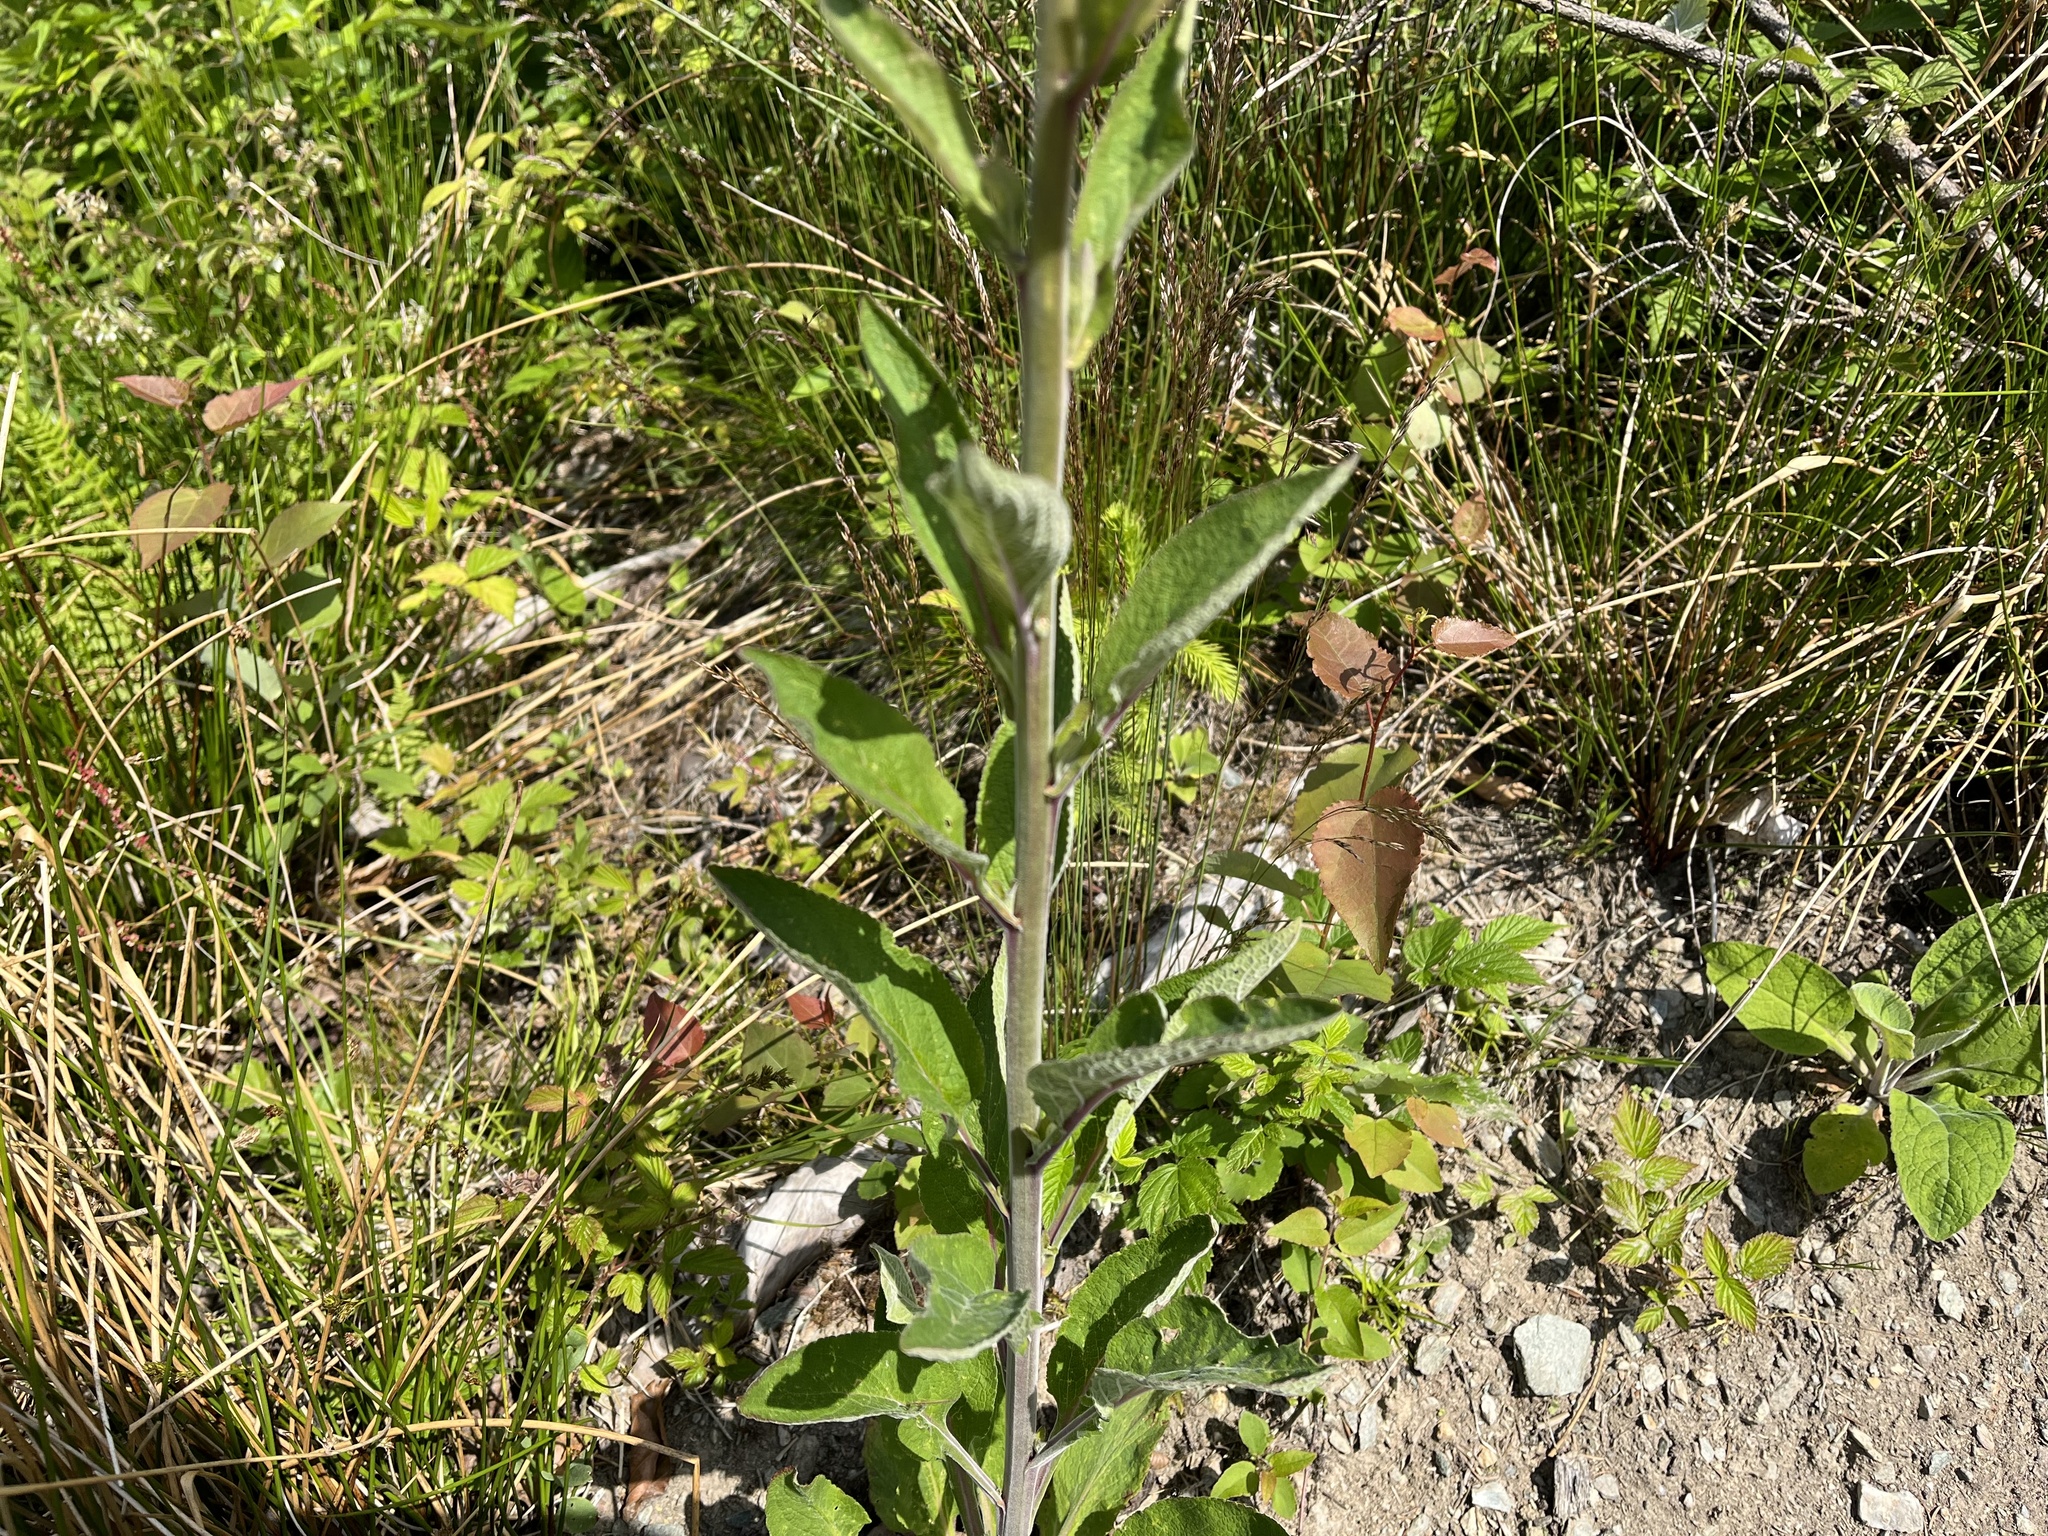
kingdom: Plantae
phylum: Tracheophyta
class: Magnoliopsida
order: Lamiales
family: Plantaginaceae
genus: Digitalis
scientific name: Digitalis purpurea
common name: Foxglove
